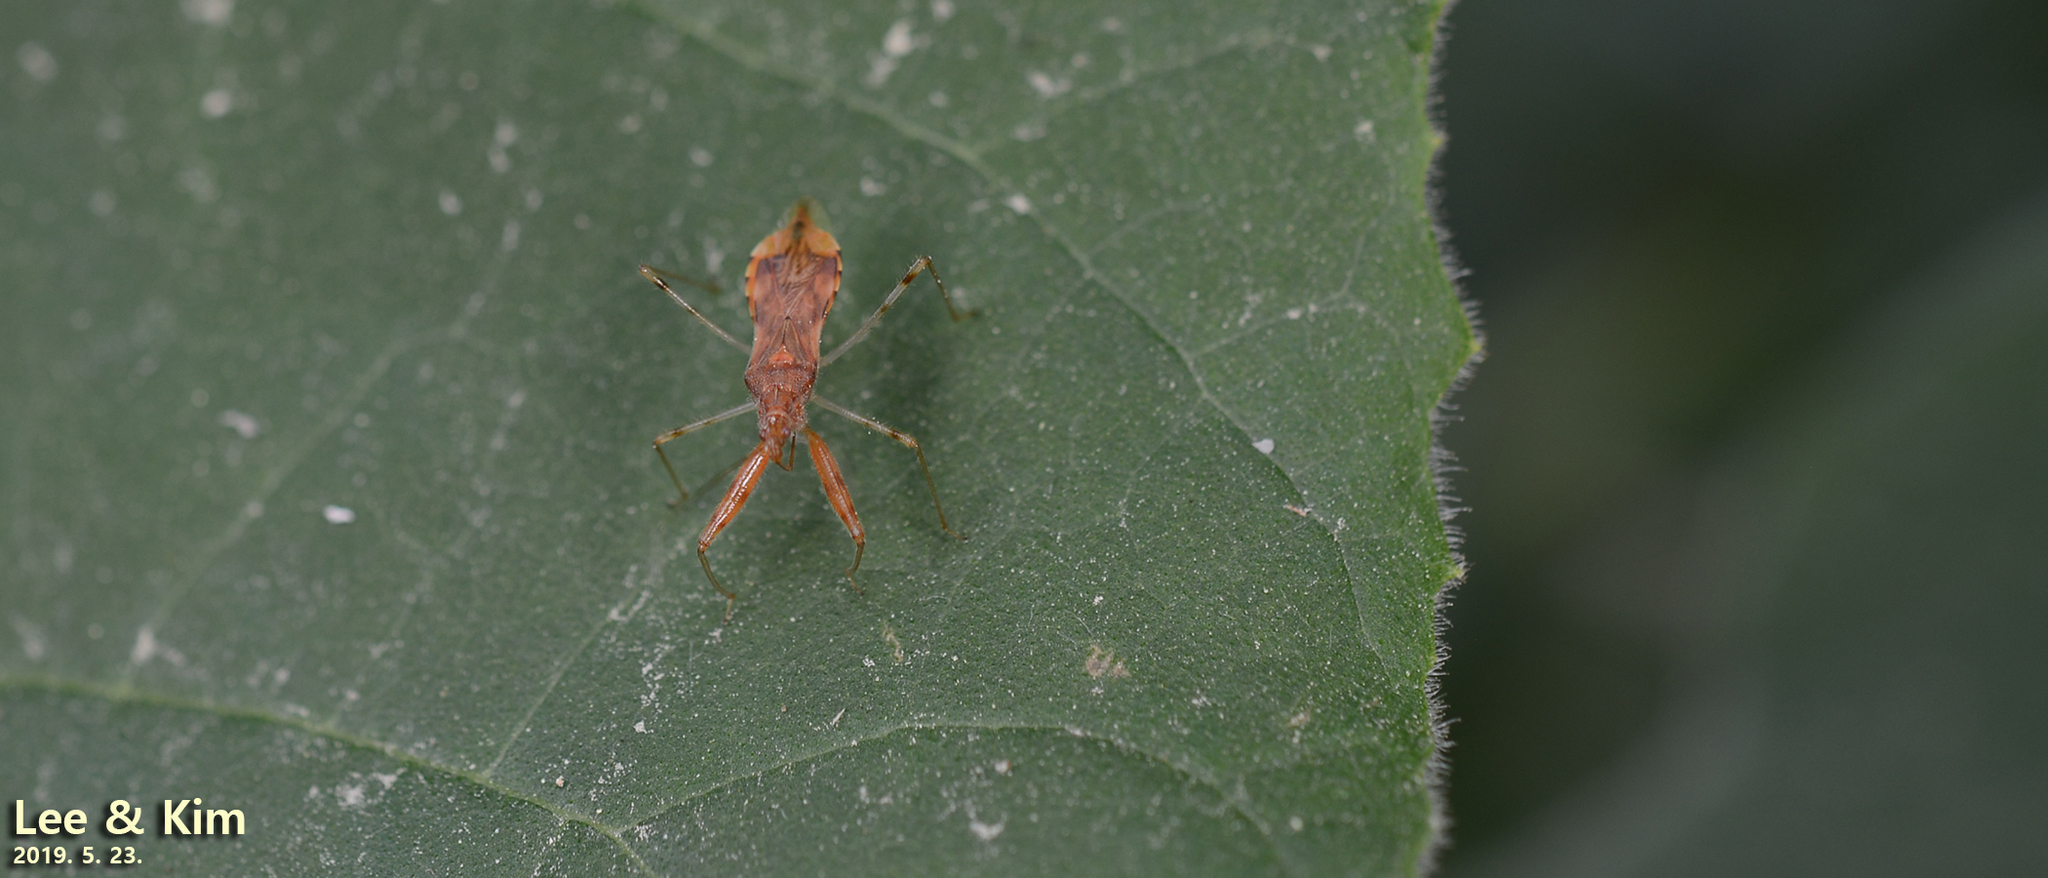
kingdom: Animalia
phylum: Arthropoda
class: Insecta
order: Hemiptera
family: Nabidae
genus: Gorpis
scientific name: Gorpis
